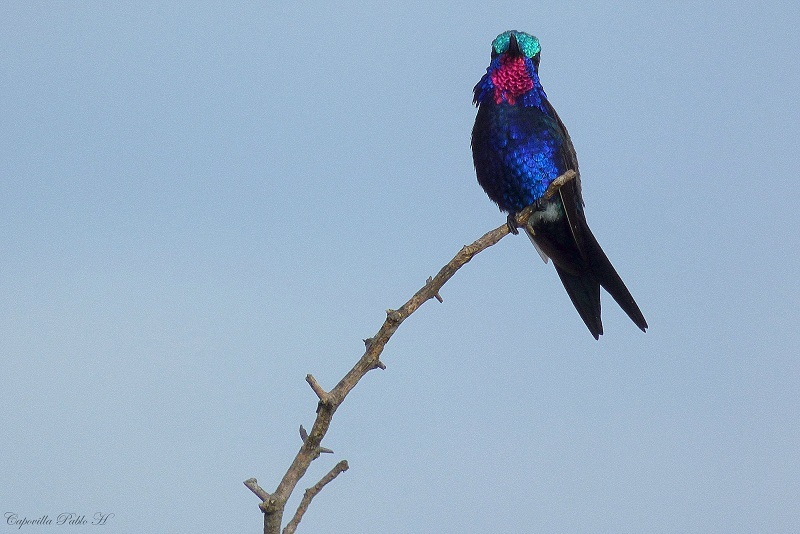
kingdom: Animalia
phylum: Chordata
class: Aves
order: Apodiformes
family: Trochilidae
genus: Heliomaster
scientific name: Heliomaster furcifer
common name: Blue-tufted starthroat
